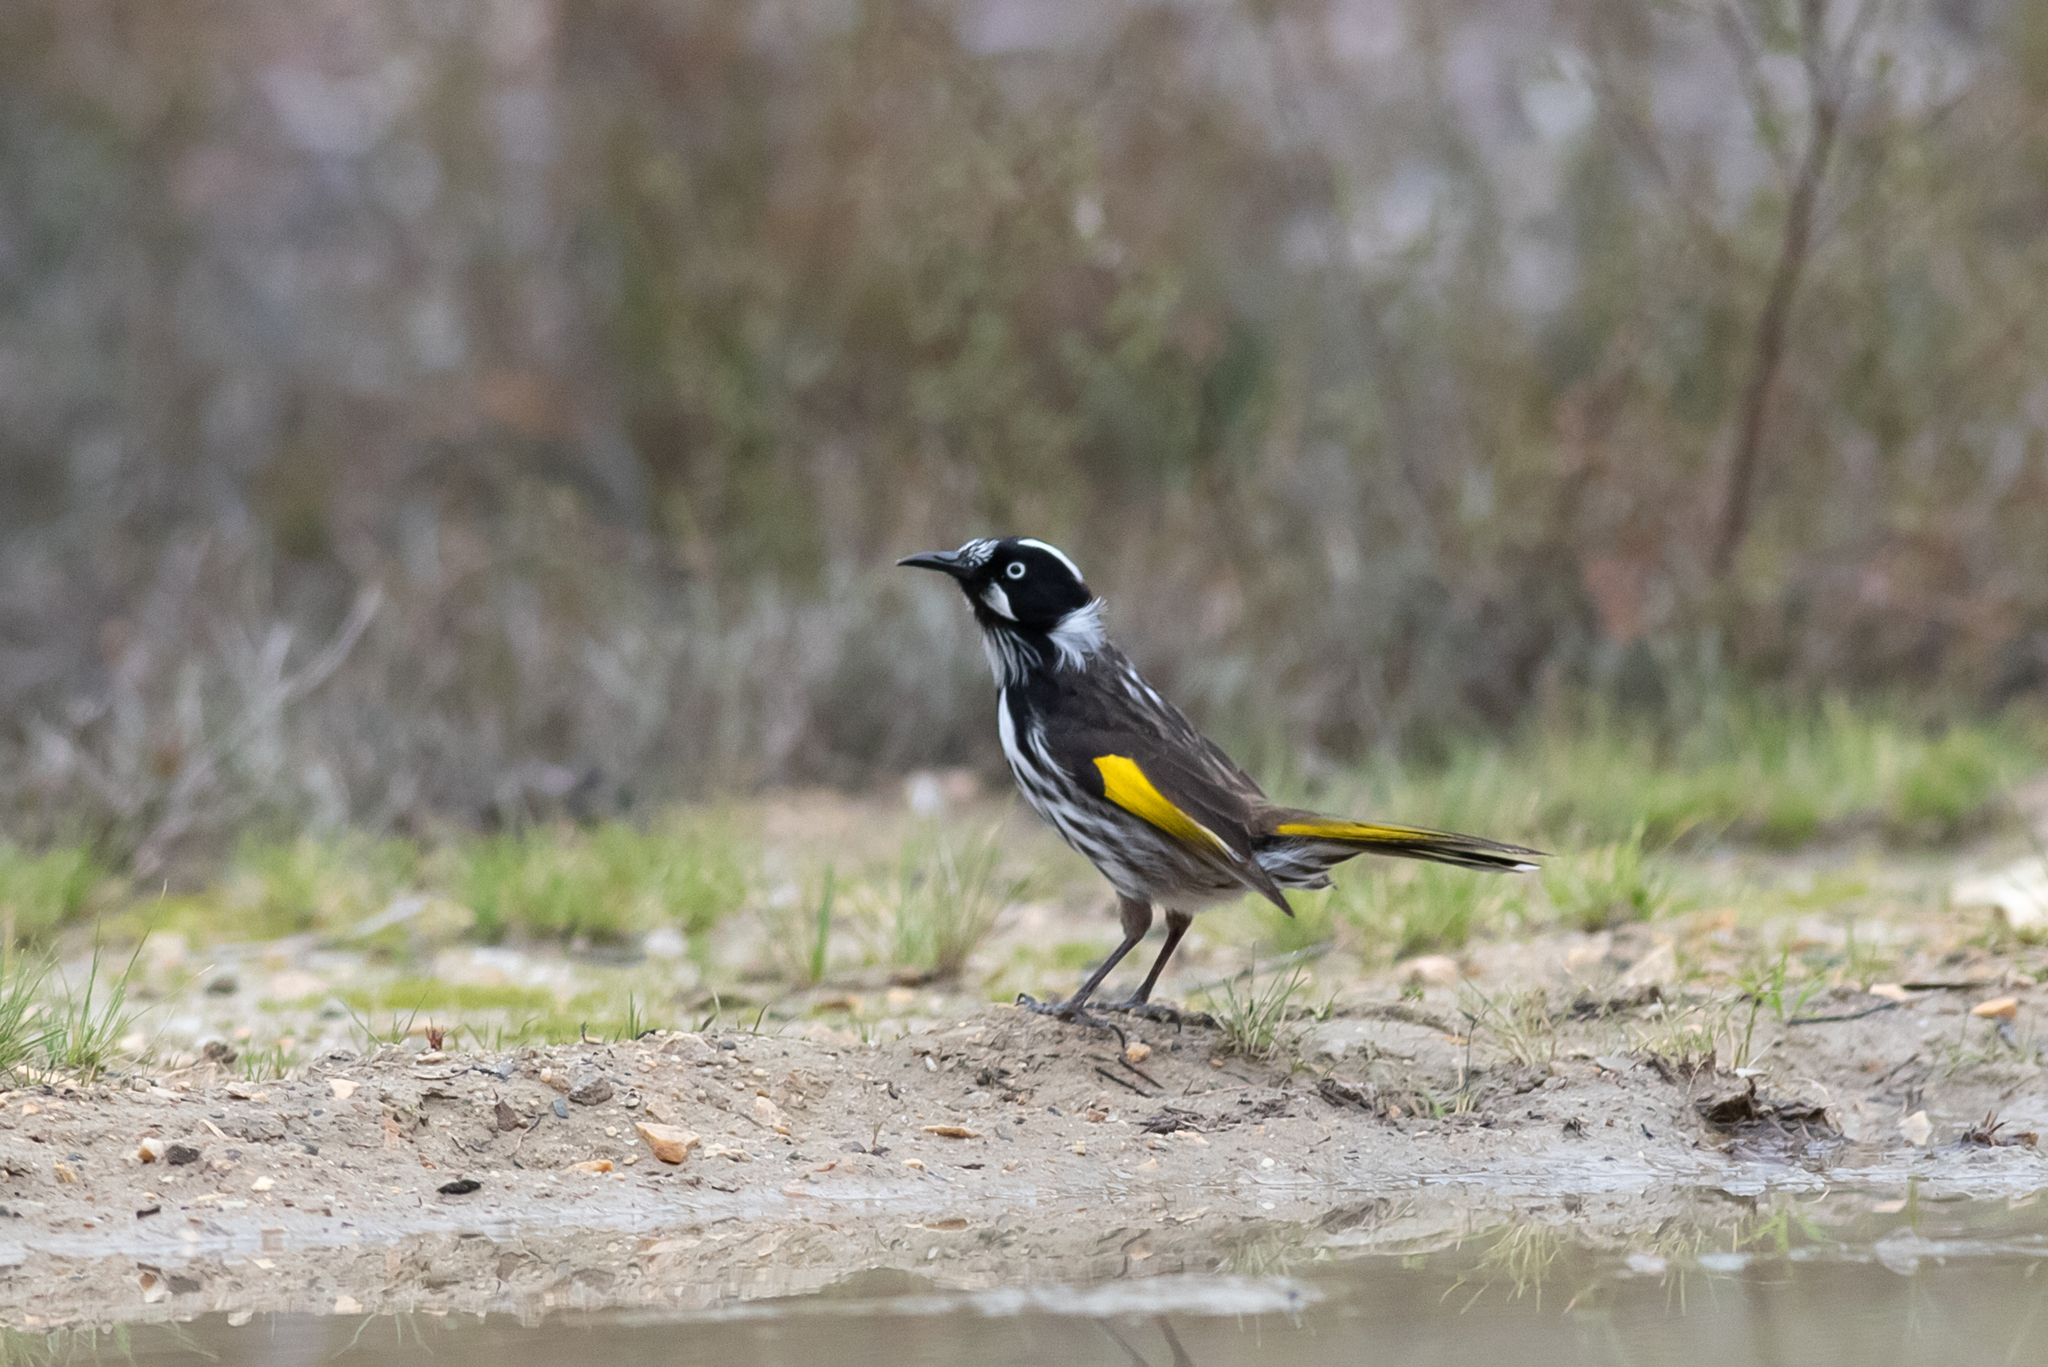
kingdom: Animalia
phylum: Chordata
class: Aves
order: Passeriformes
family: Meliphagidae
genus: Phylidonyris
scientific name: Phylidonyris novaehollandiae
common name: New holland honeyeater
